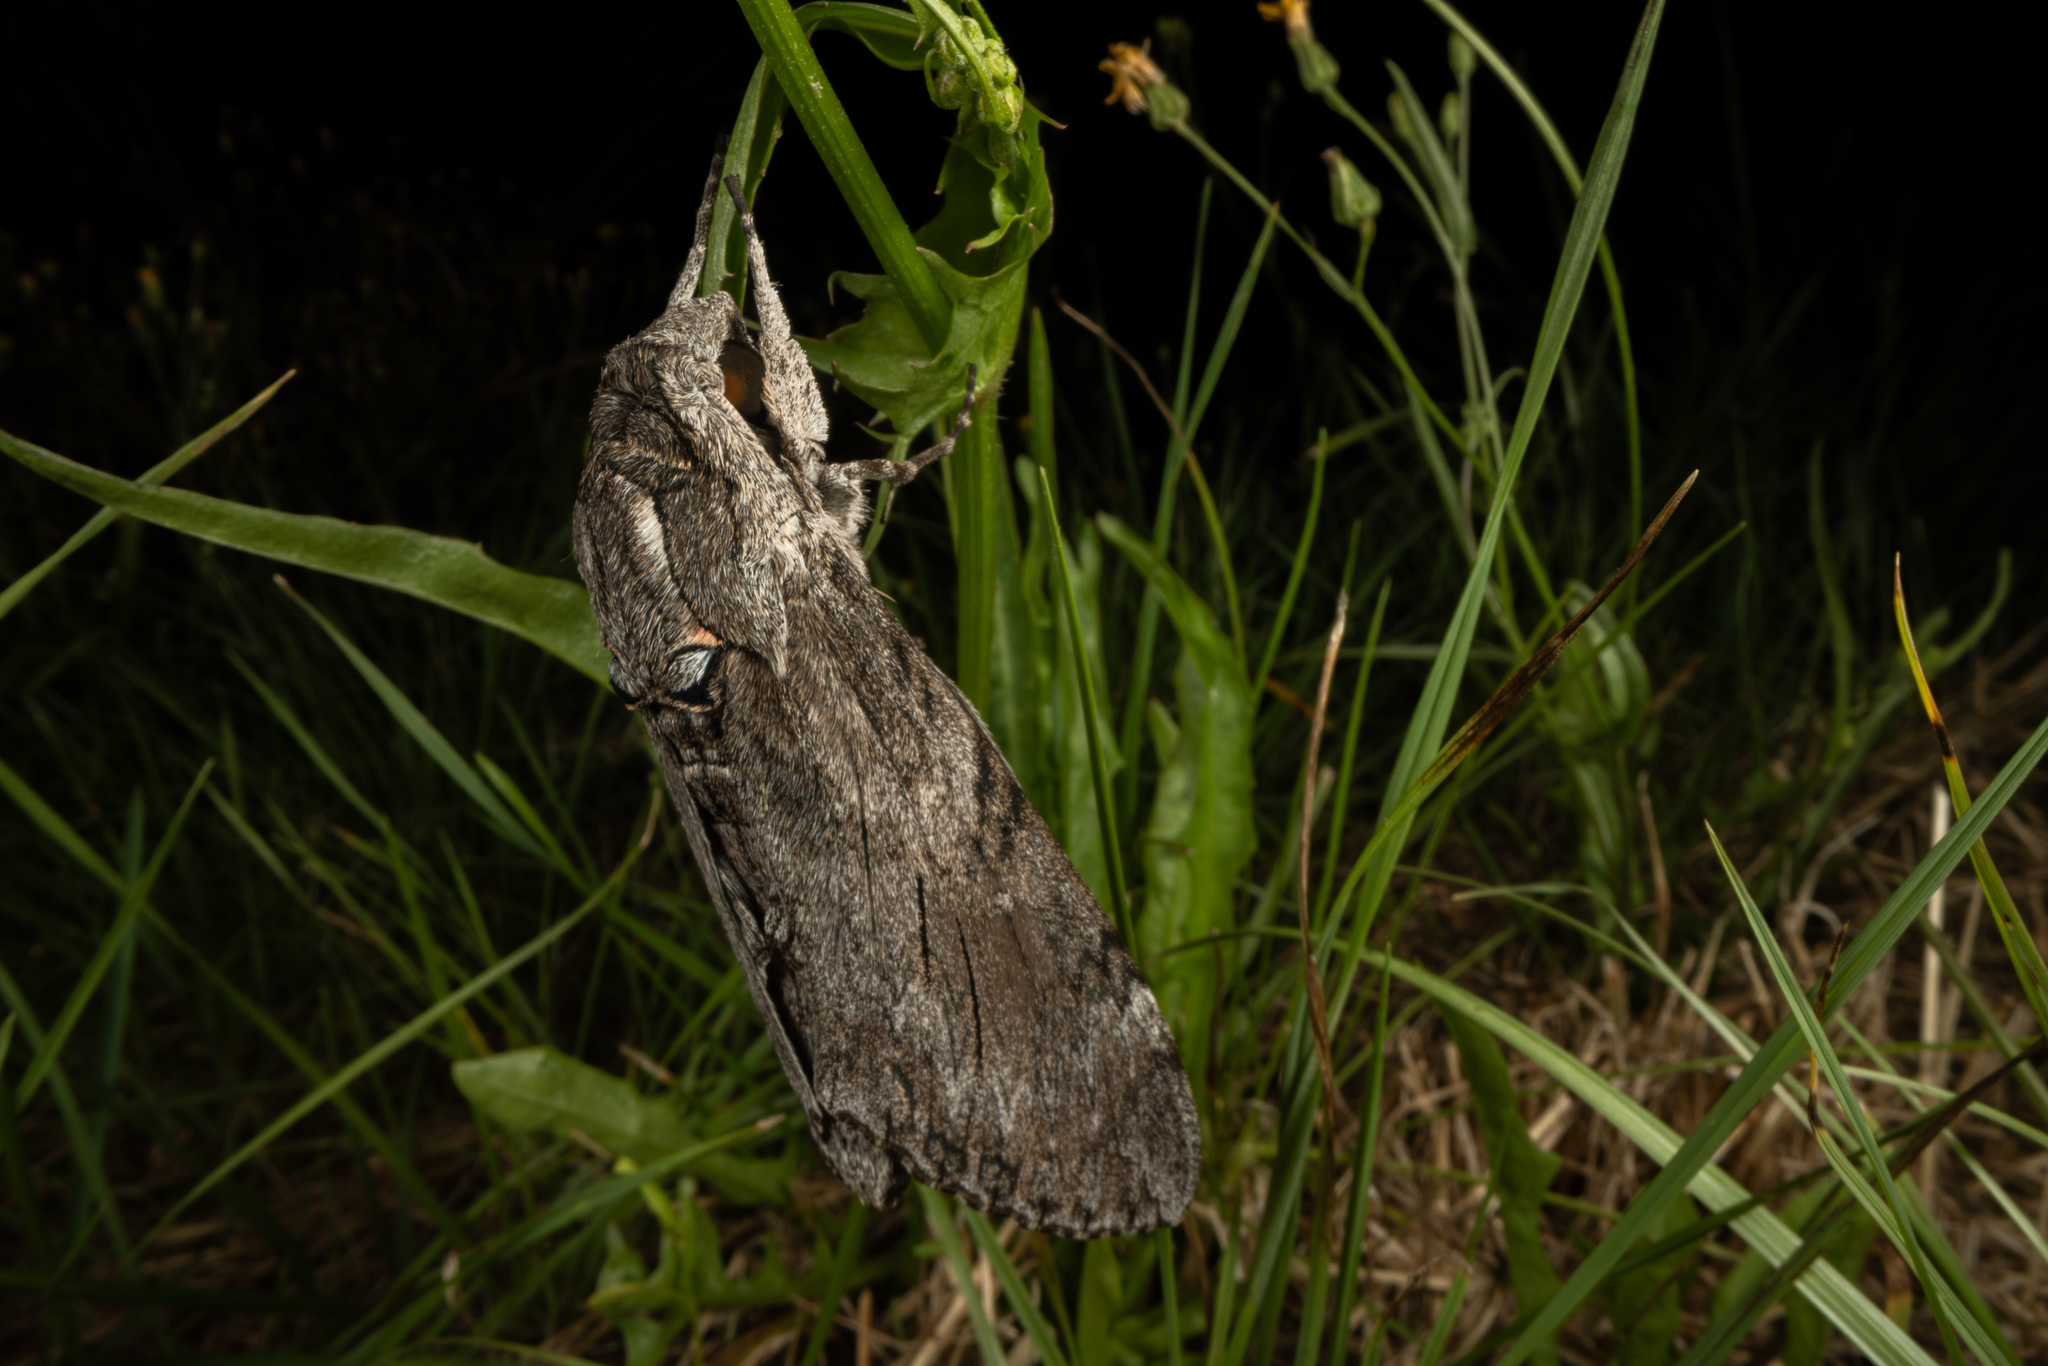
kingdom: Animalia
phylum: Arthropoda
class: Insecta
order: Lepidoptera
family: Sphingidae
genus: Agrius
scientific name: Agrius convolvuli
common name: Convolvulus hawkmoth
